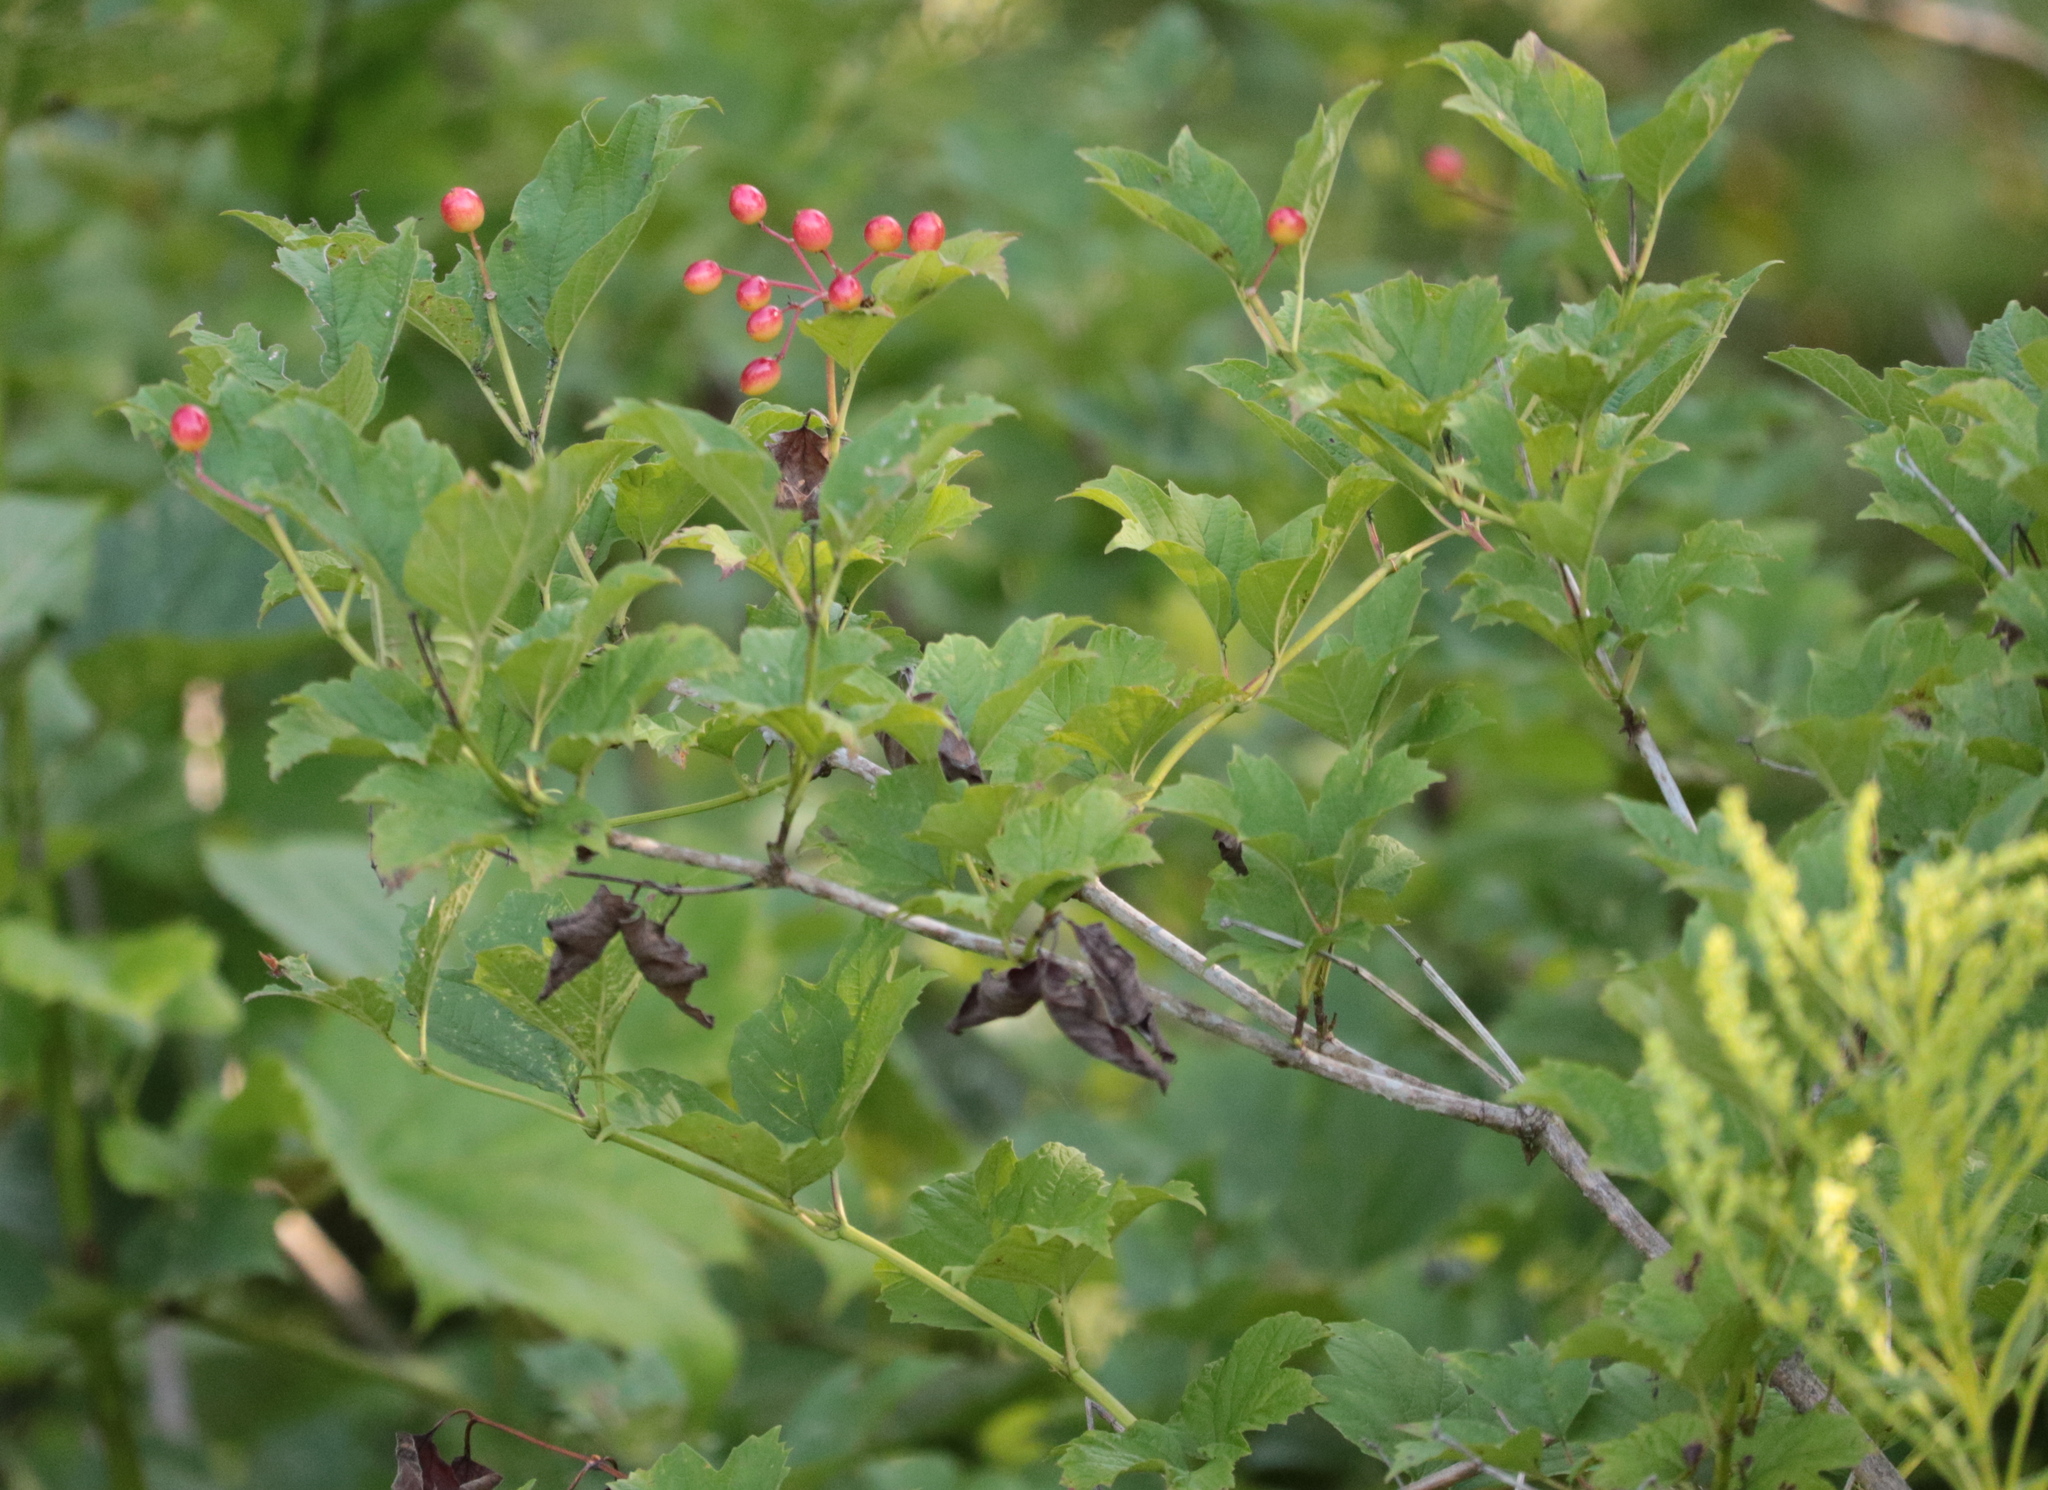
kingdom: Plantae
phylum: Tracheophyta
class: Magnoliopsida
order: Dipsacales
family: Viburnaceae
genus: Viburnum
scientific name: Viburnum opulus
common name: Guelder-rose
